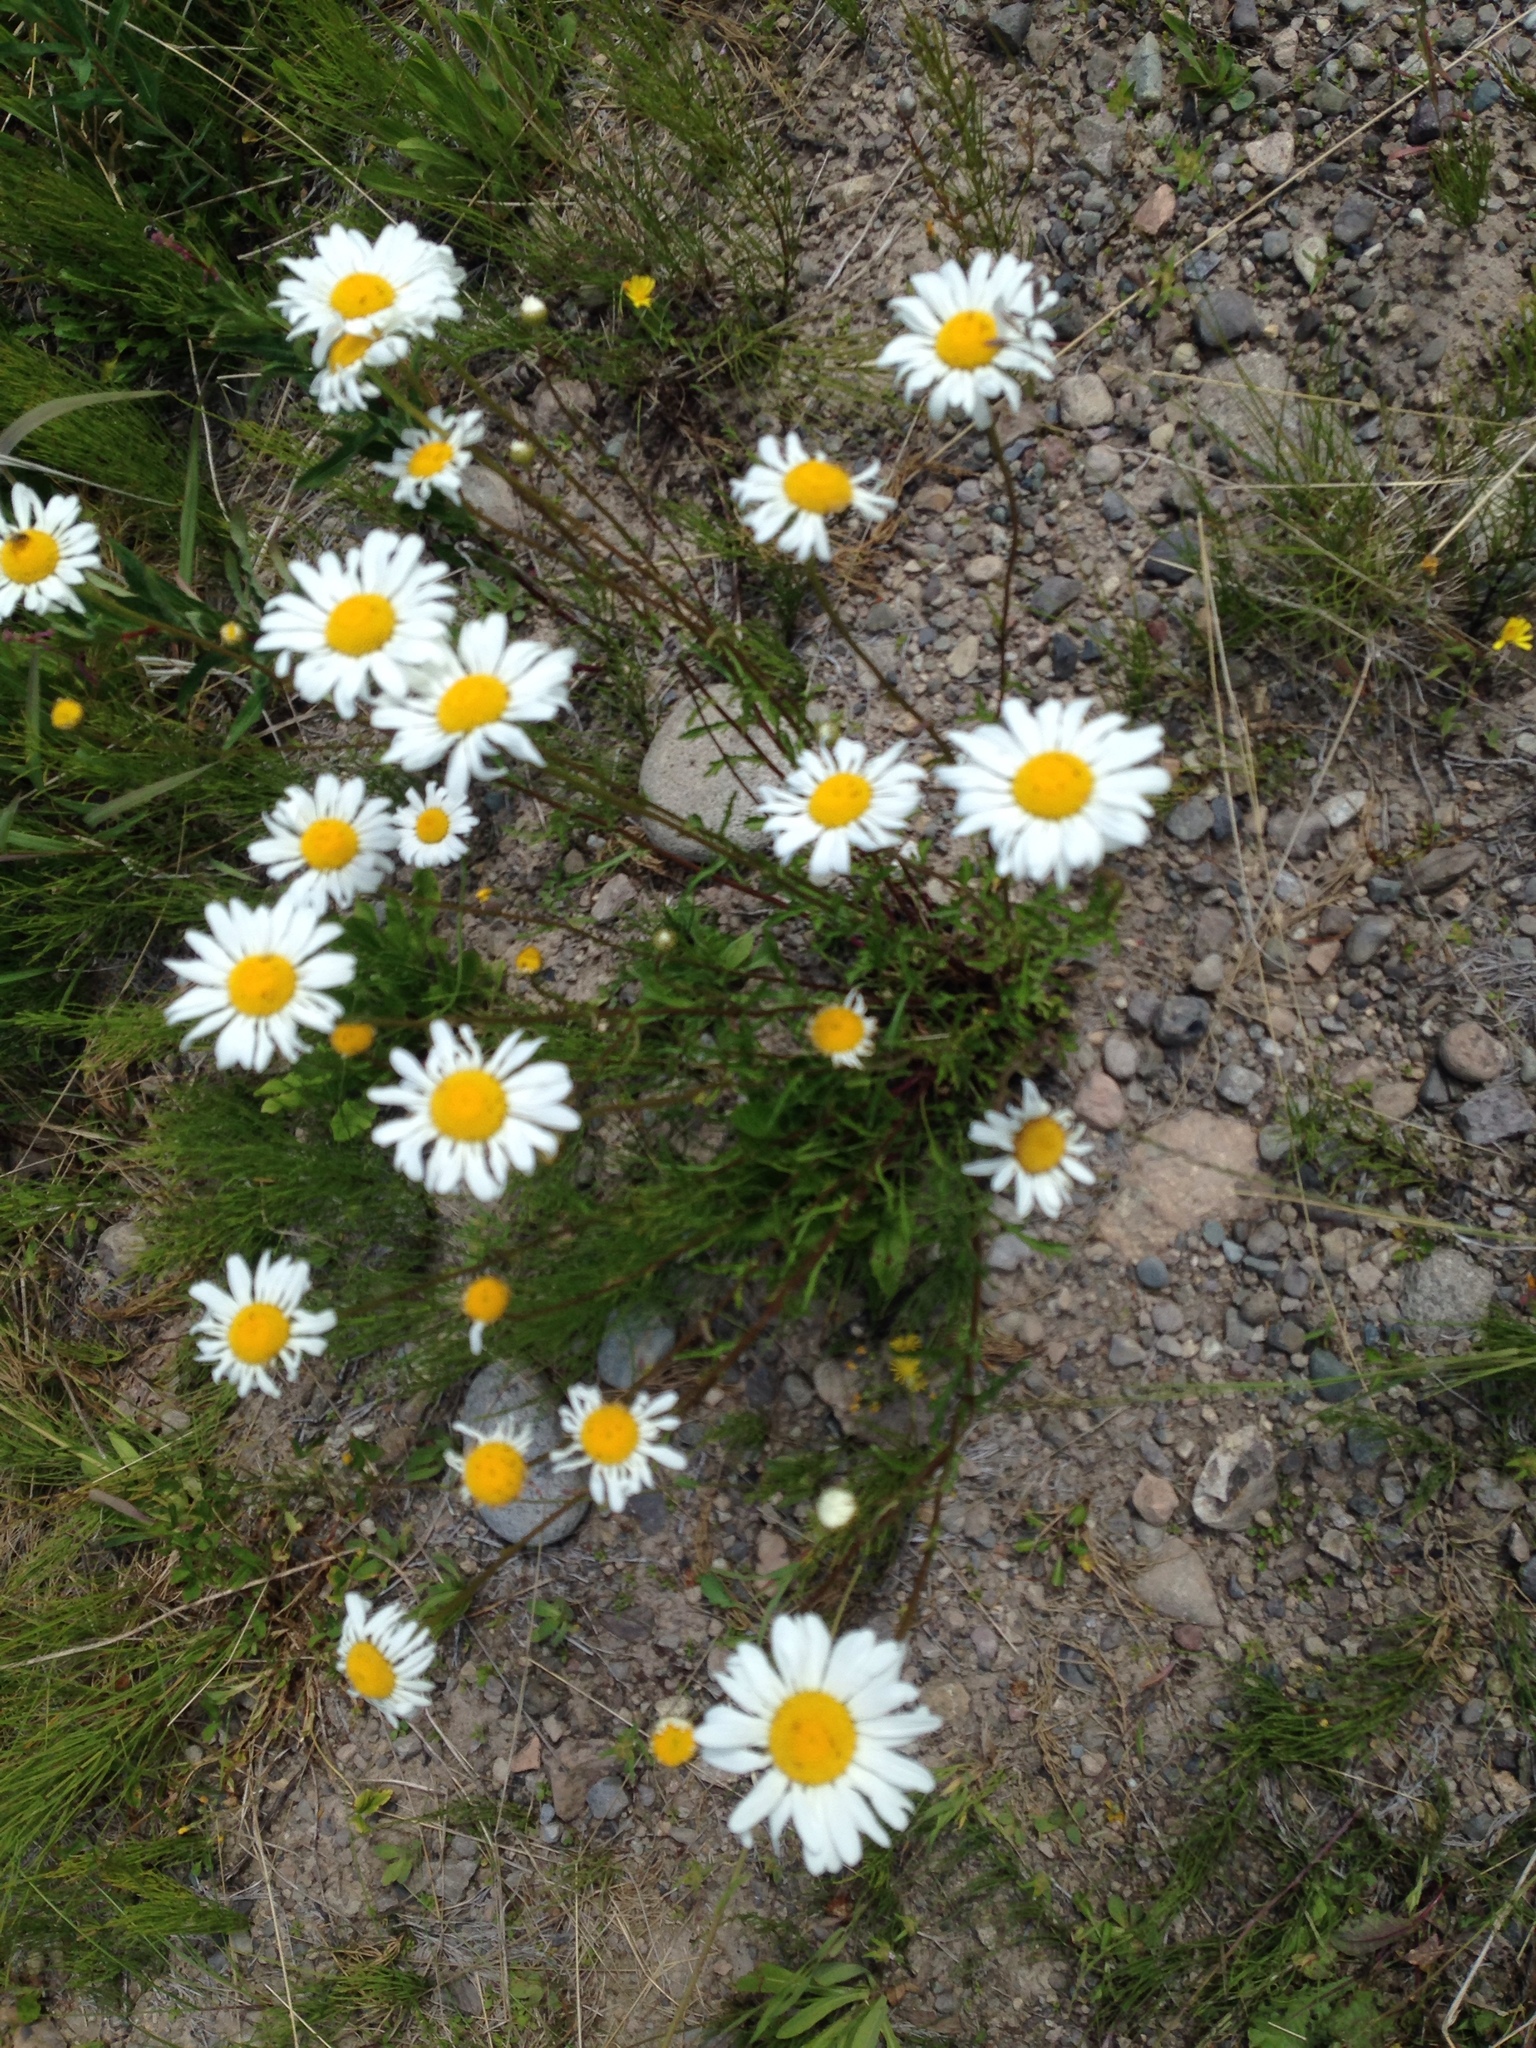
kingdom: Plantae
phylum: Tracheophyta
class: Magnoliopsida
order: Asterales
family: Asteraceae
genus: Leucanthemum
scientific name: Leucanthemum vulgare
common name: Oxeye daisy
